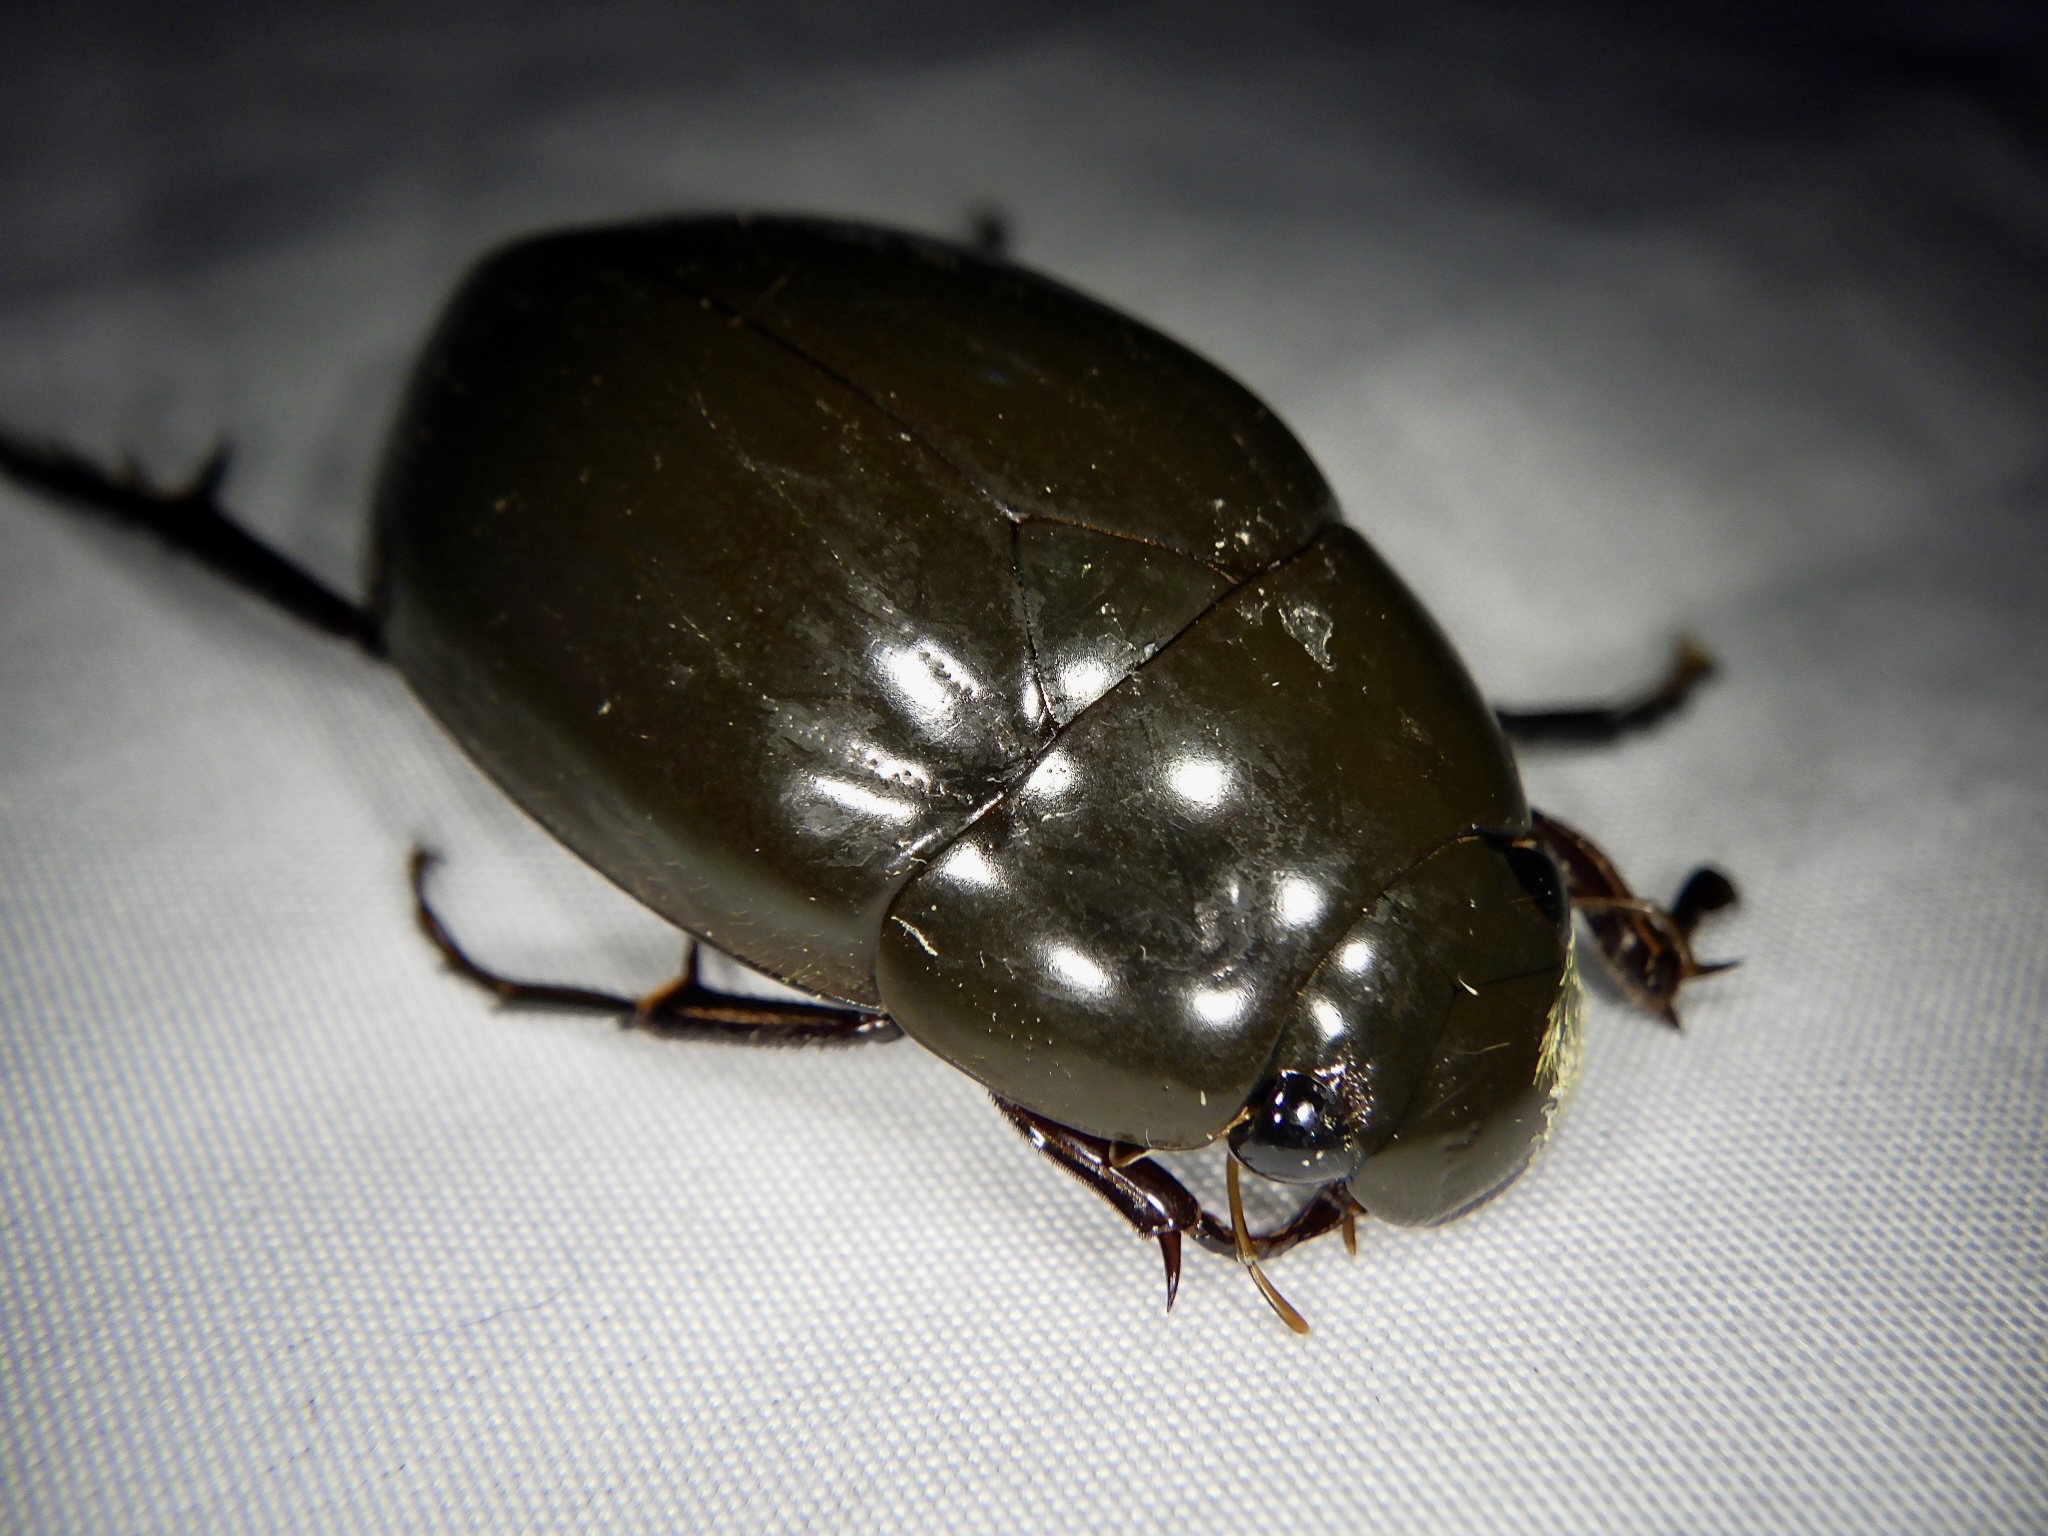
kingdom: Animalia
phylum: Arthropoda
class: Insecta
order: Coleoptera
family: Hydrophilidae
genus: Hydrophilus
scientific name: Hydrophilus acuminatus
